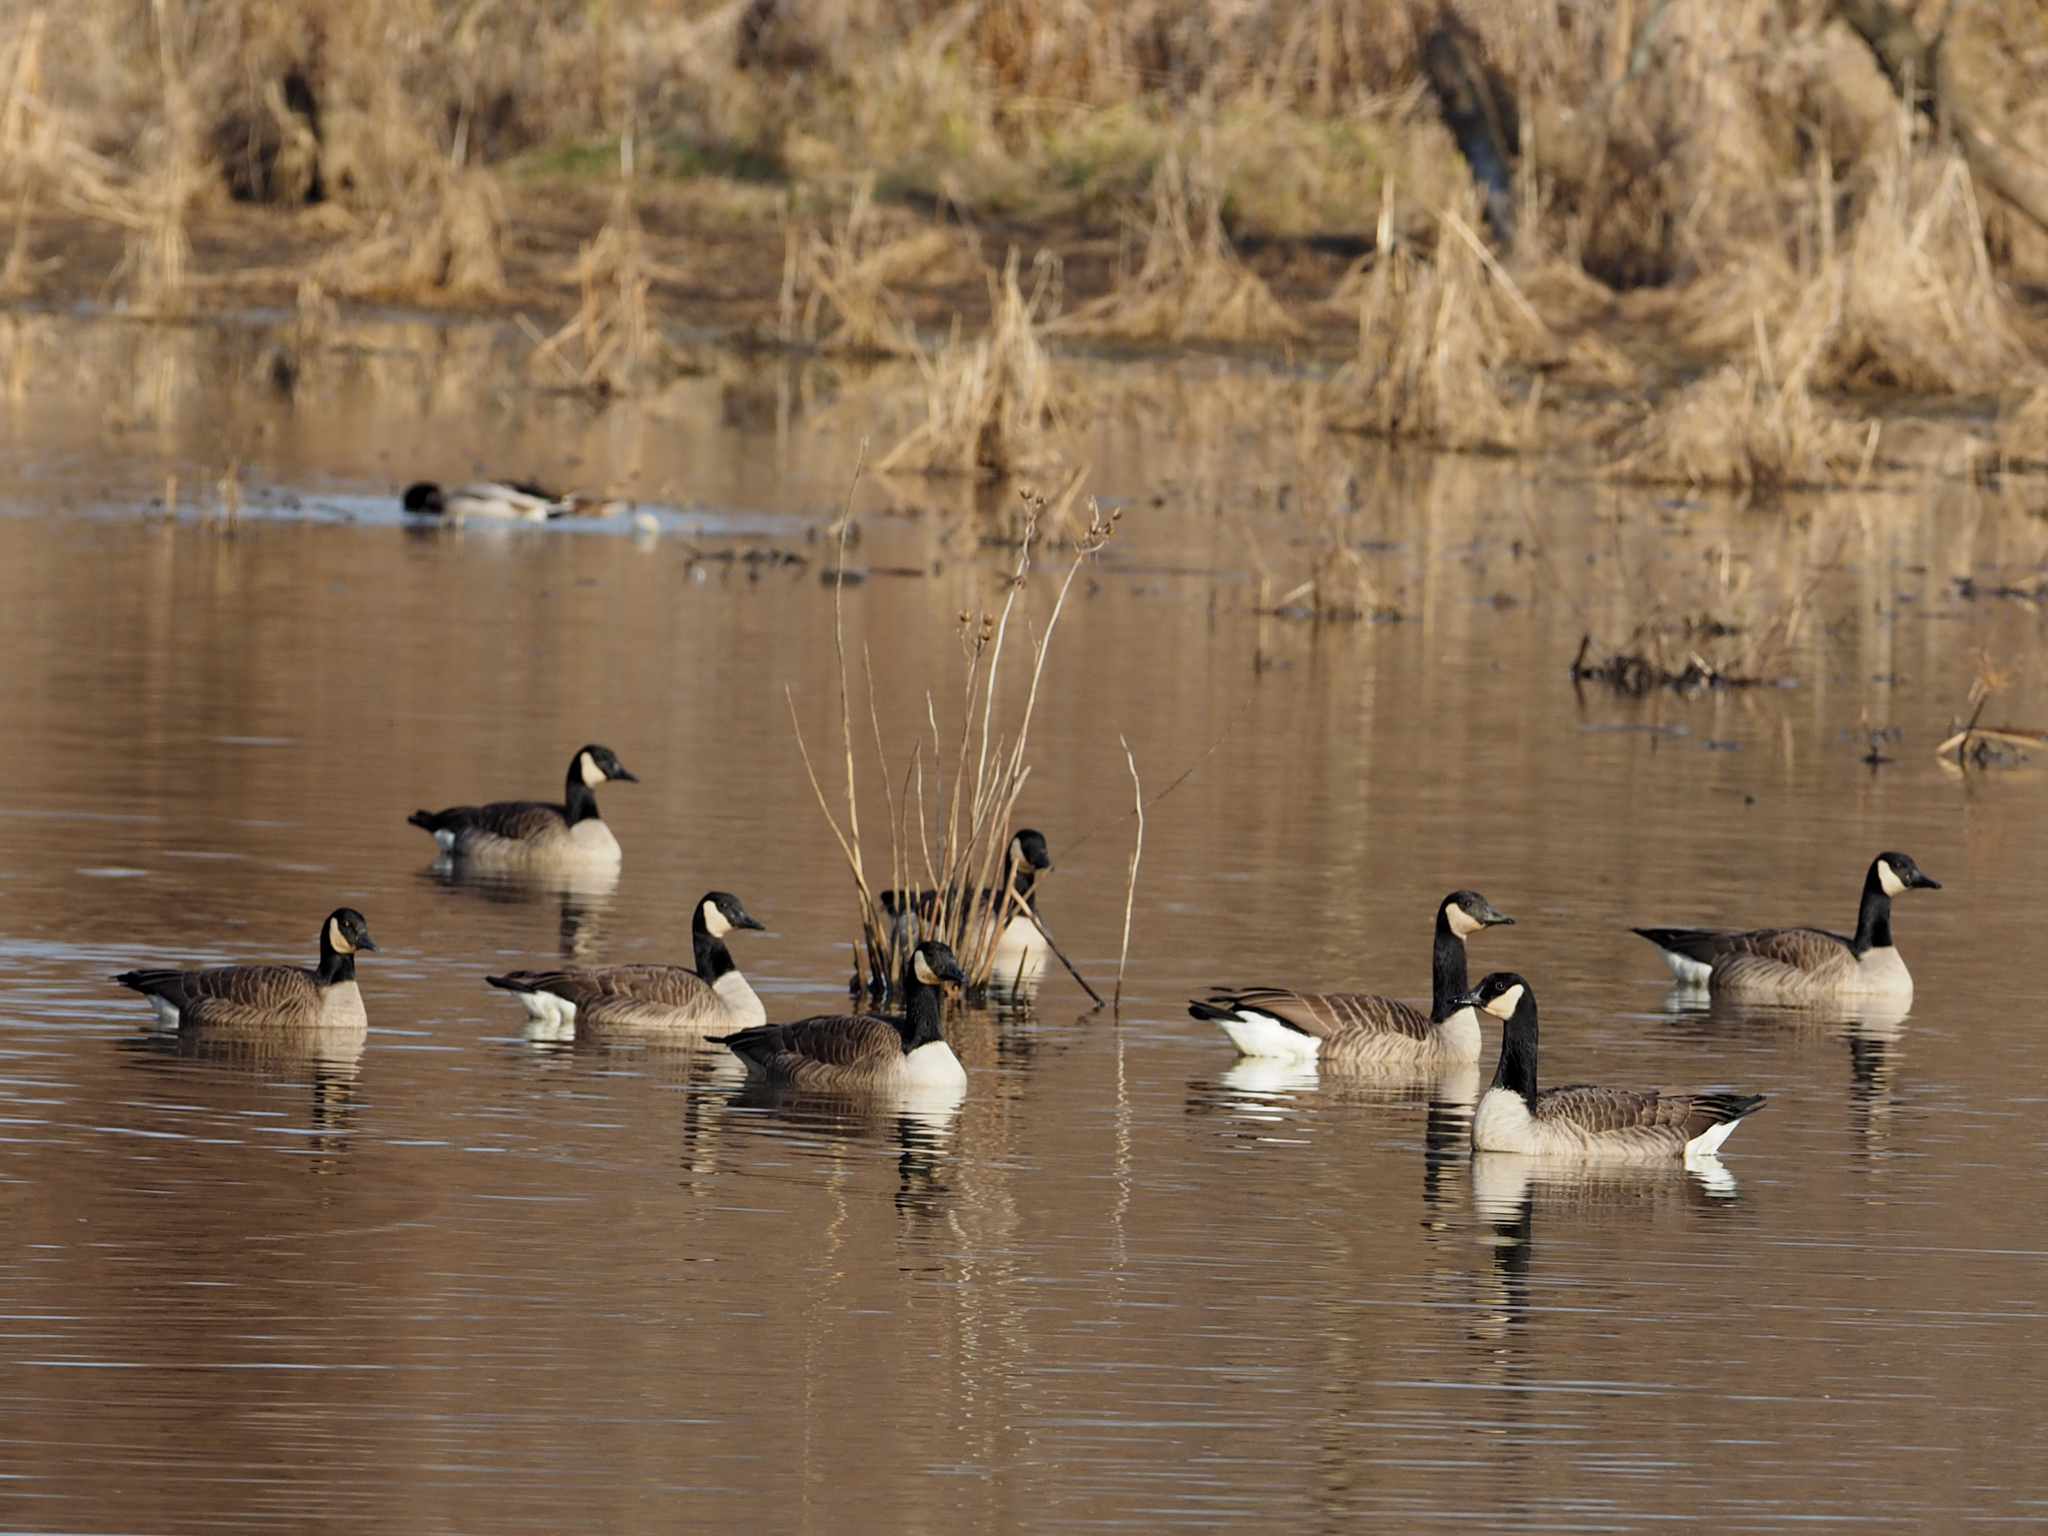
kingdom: Animalia
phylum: Chordata
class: Aves
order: Anseriformes
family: Anatidae
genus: Branta
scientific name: Branta canadensis
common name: Canada goose
